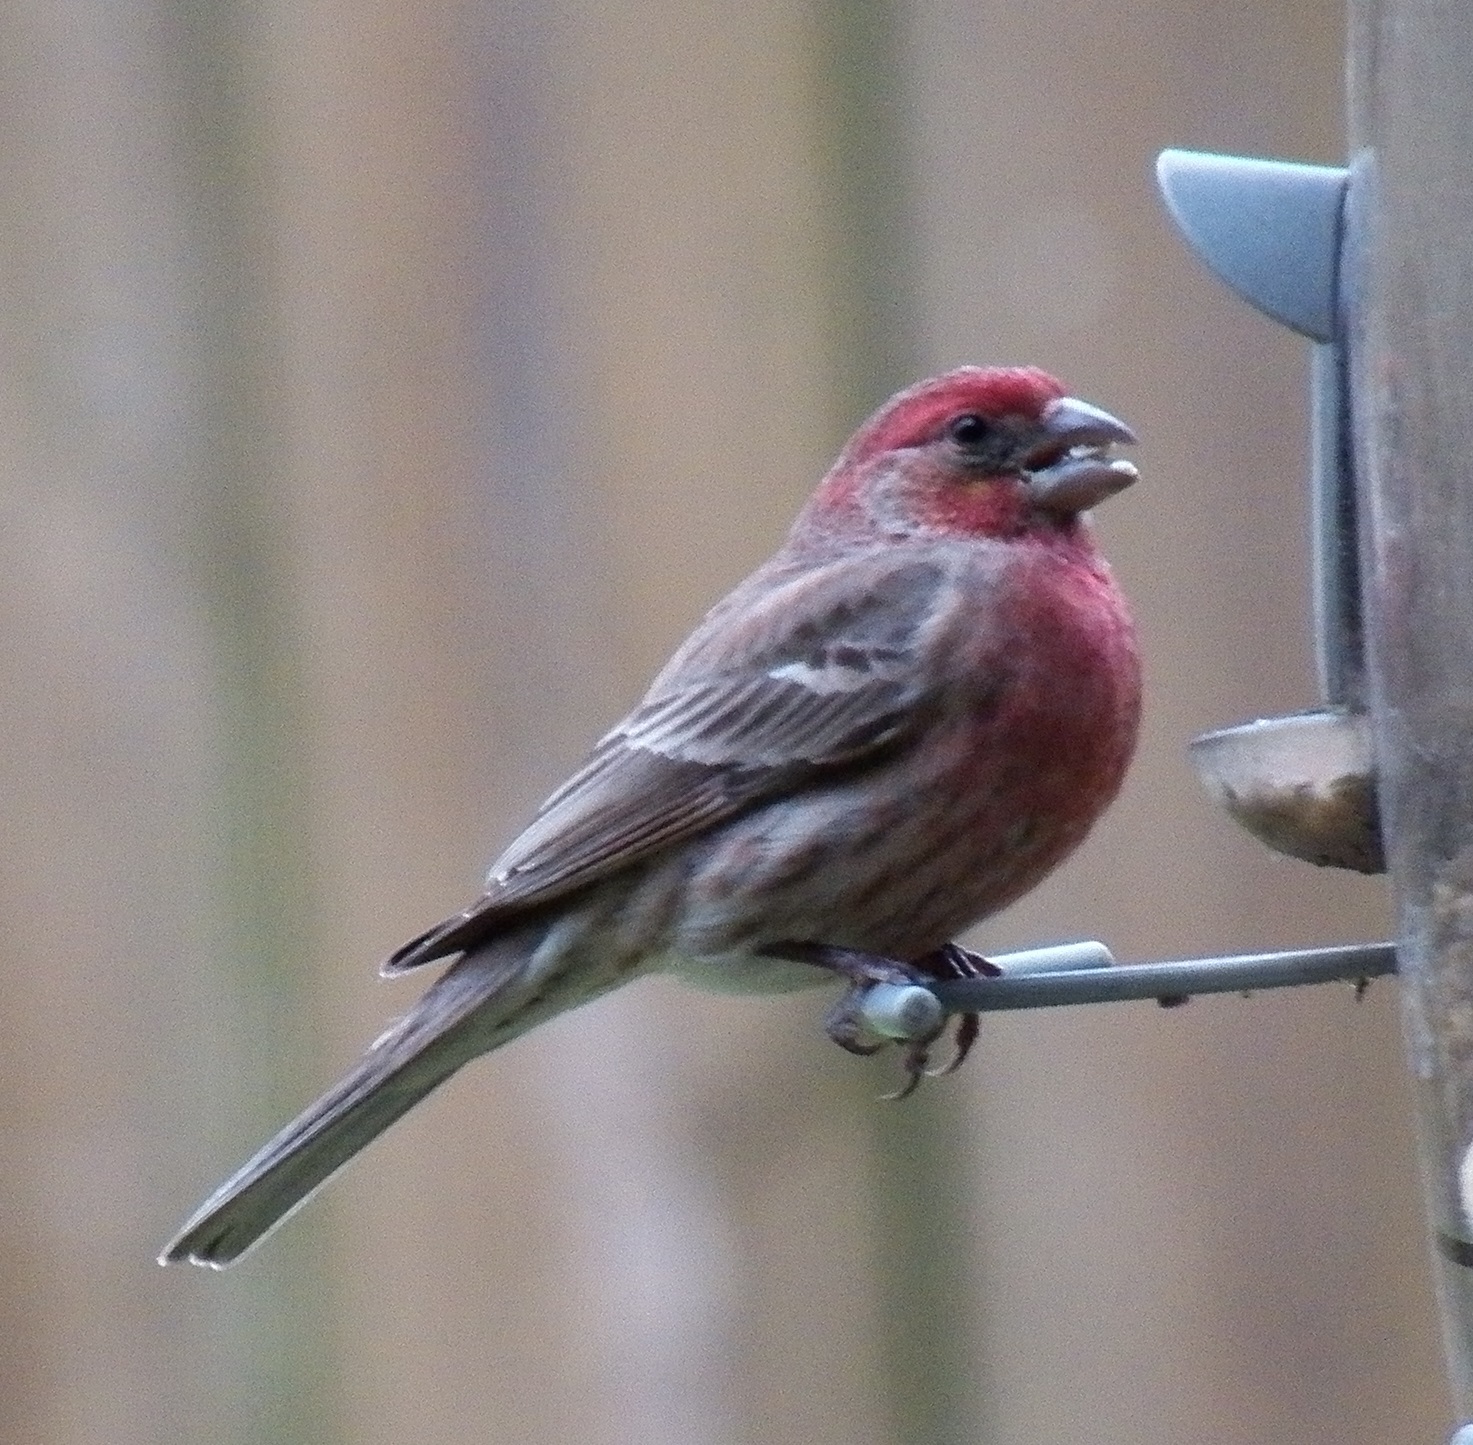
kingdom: Animalia
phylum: Chordata
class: Aves
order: Passeriformes
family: Fringillidae
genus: Haemorhous
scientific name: Haemorhous mexicanus
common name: House finch
